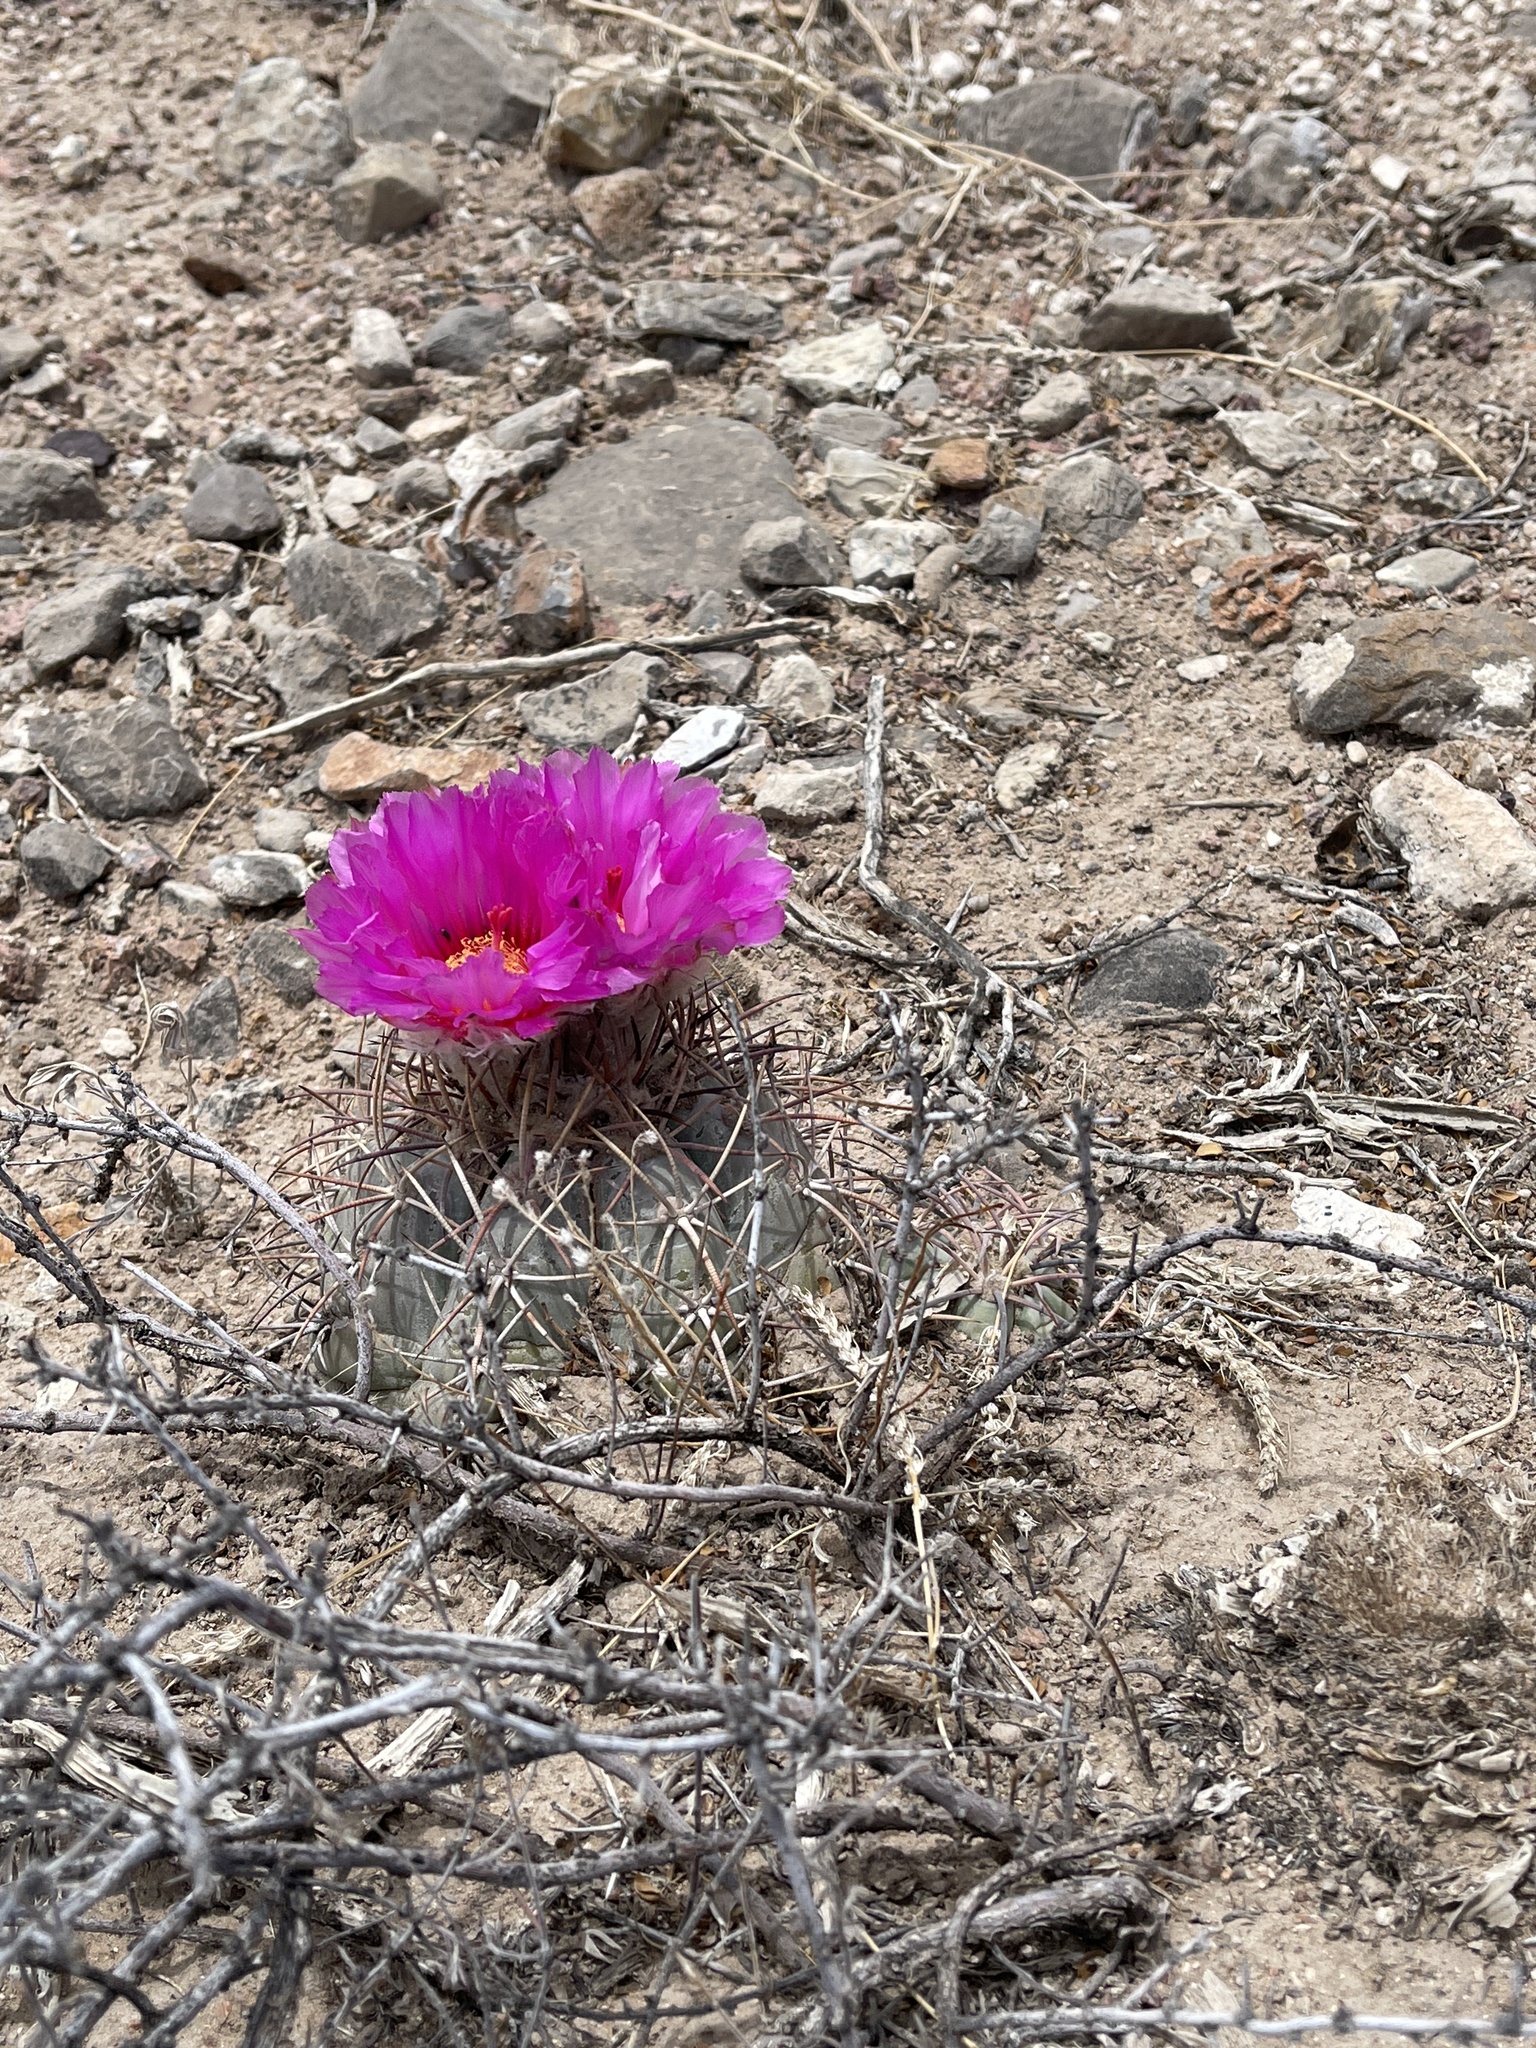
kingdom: Plantae
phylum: Tracheophyta
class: Magnoliopsida
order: Caryophyllales
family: Cactaceae
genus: Echinocactus
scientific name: Echinocactus horizonthalonius
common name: Devilshead
